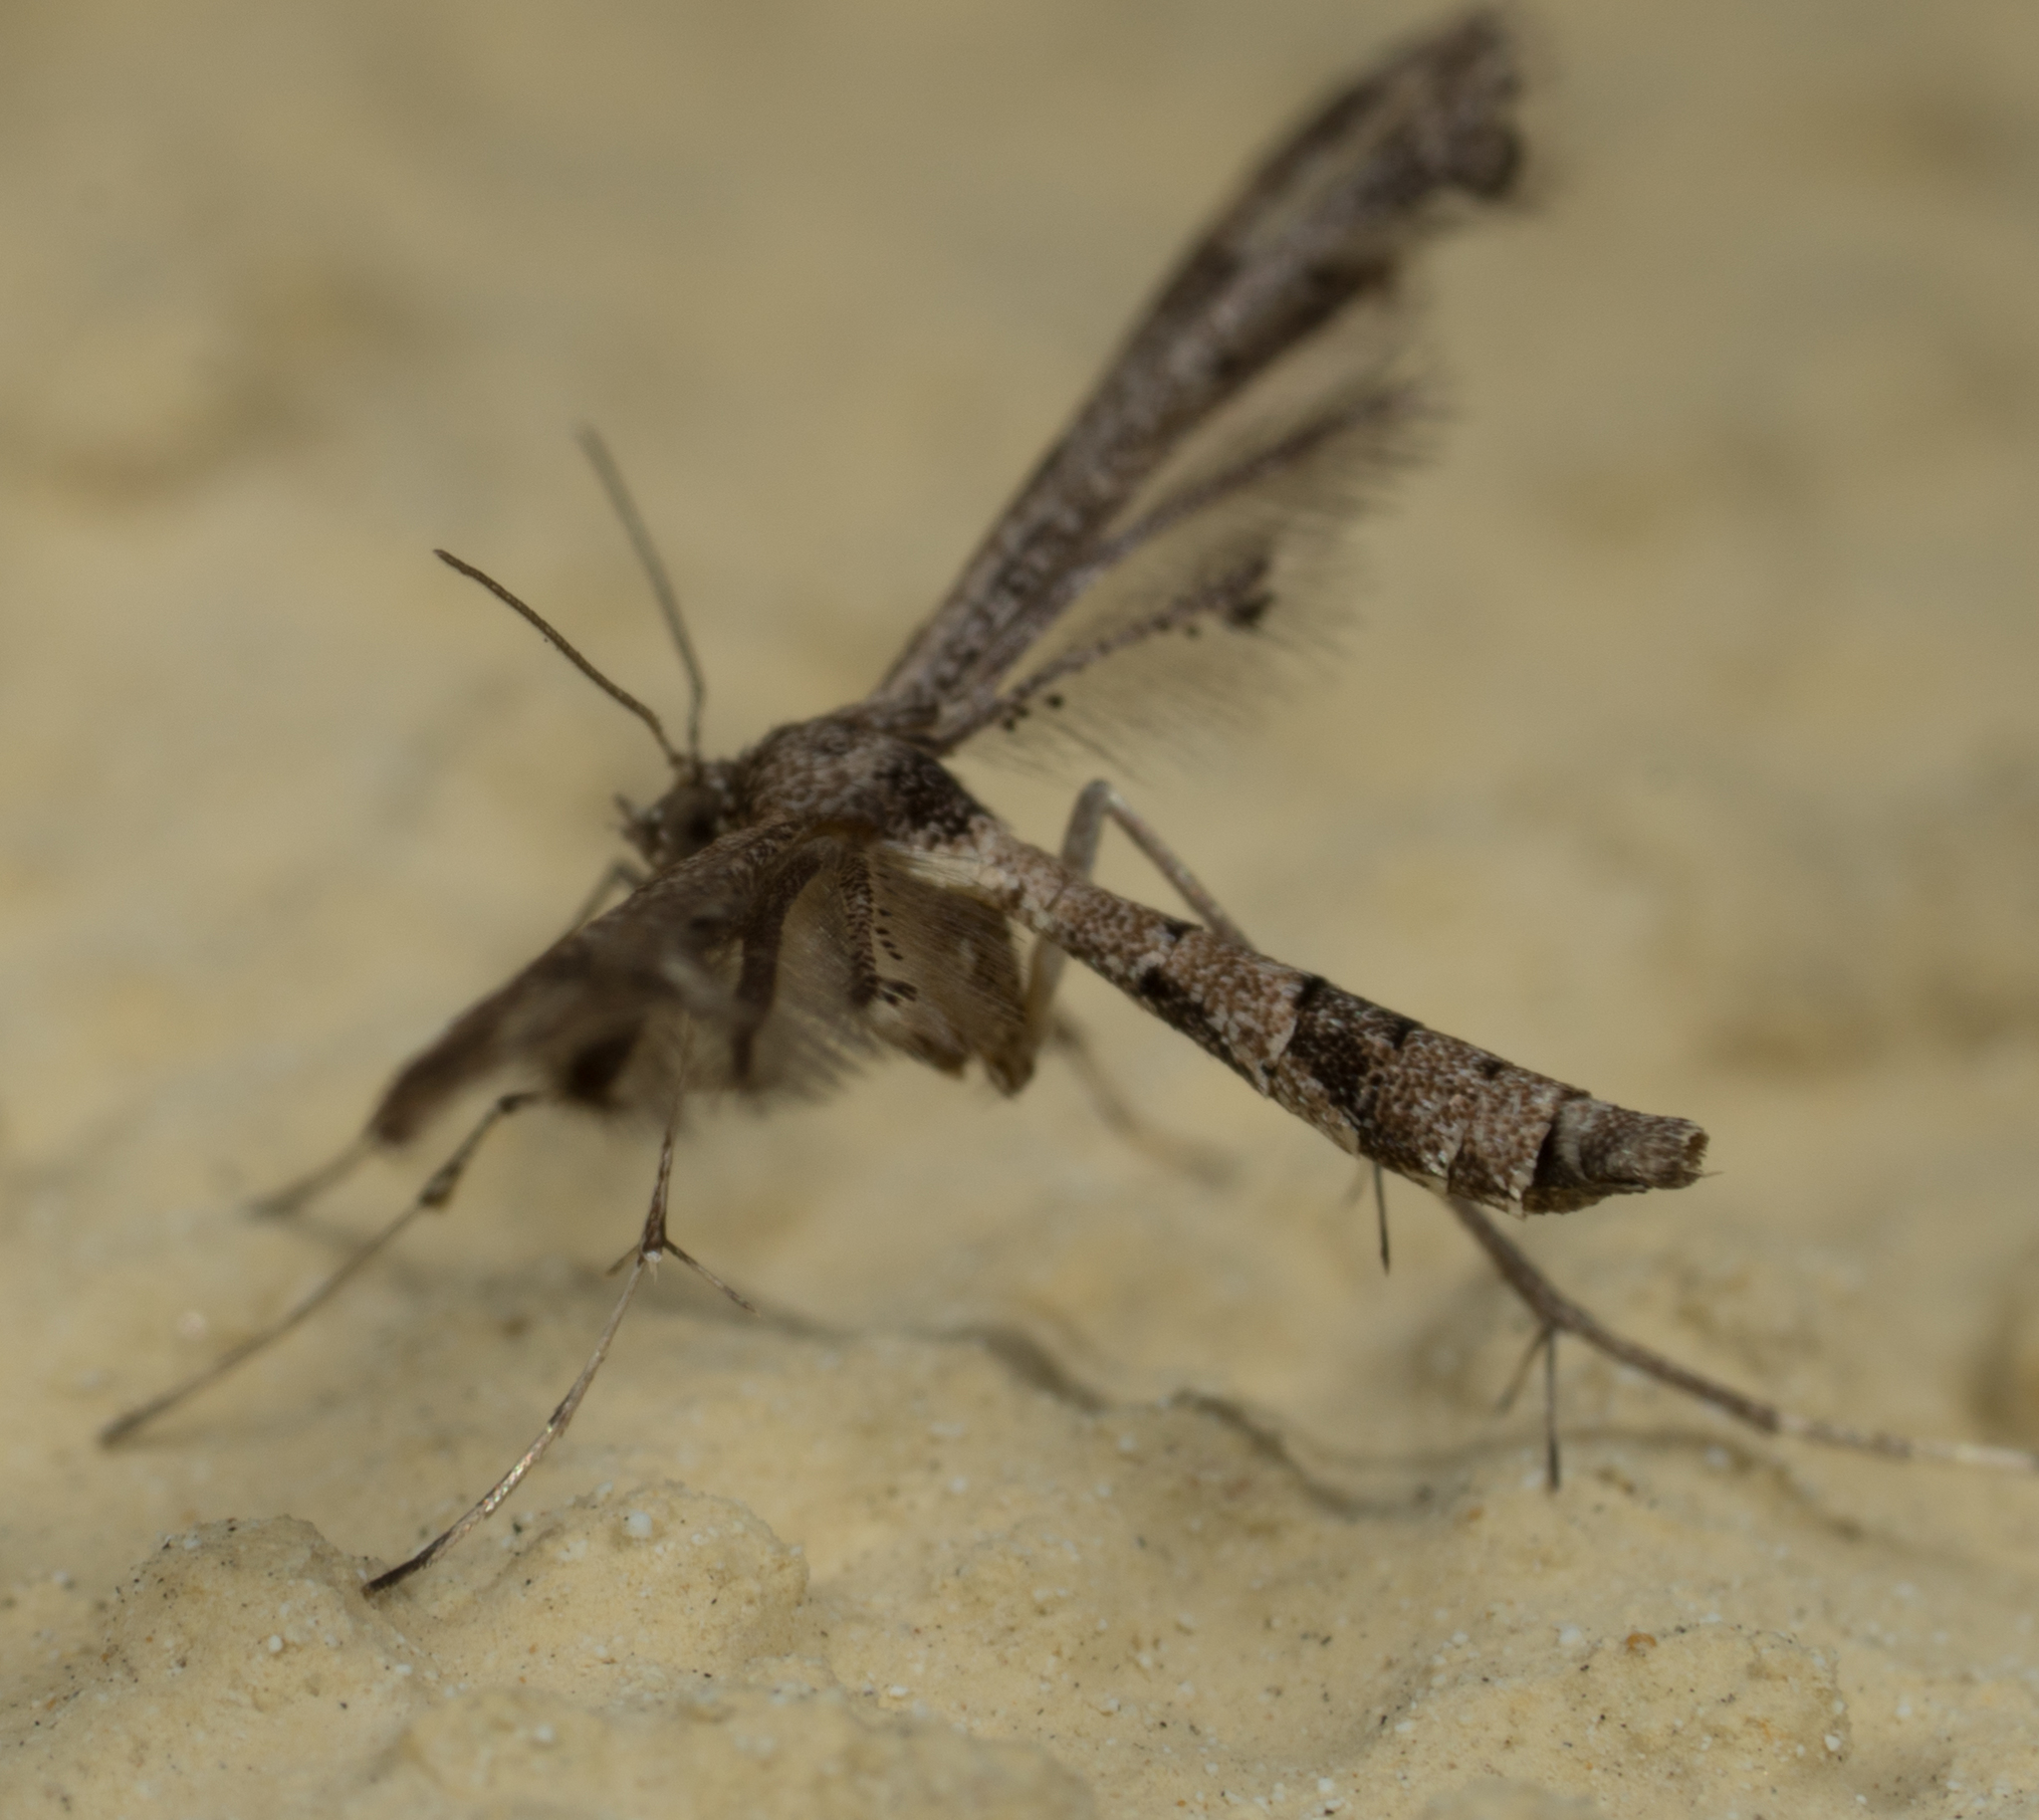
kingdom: Animalia
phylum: Arthropoda
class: Insecta
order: Lepidoptera
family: Pterophoridae
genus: Lantanophaga
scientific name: Lantanophaga pusillidactylus
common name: Moth
